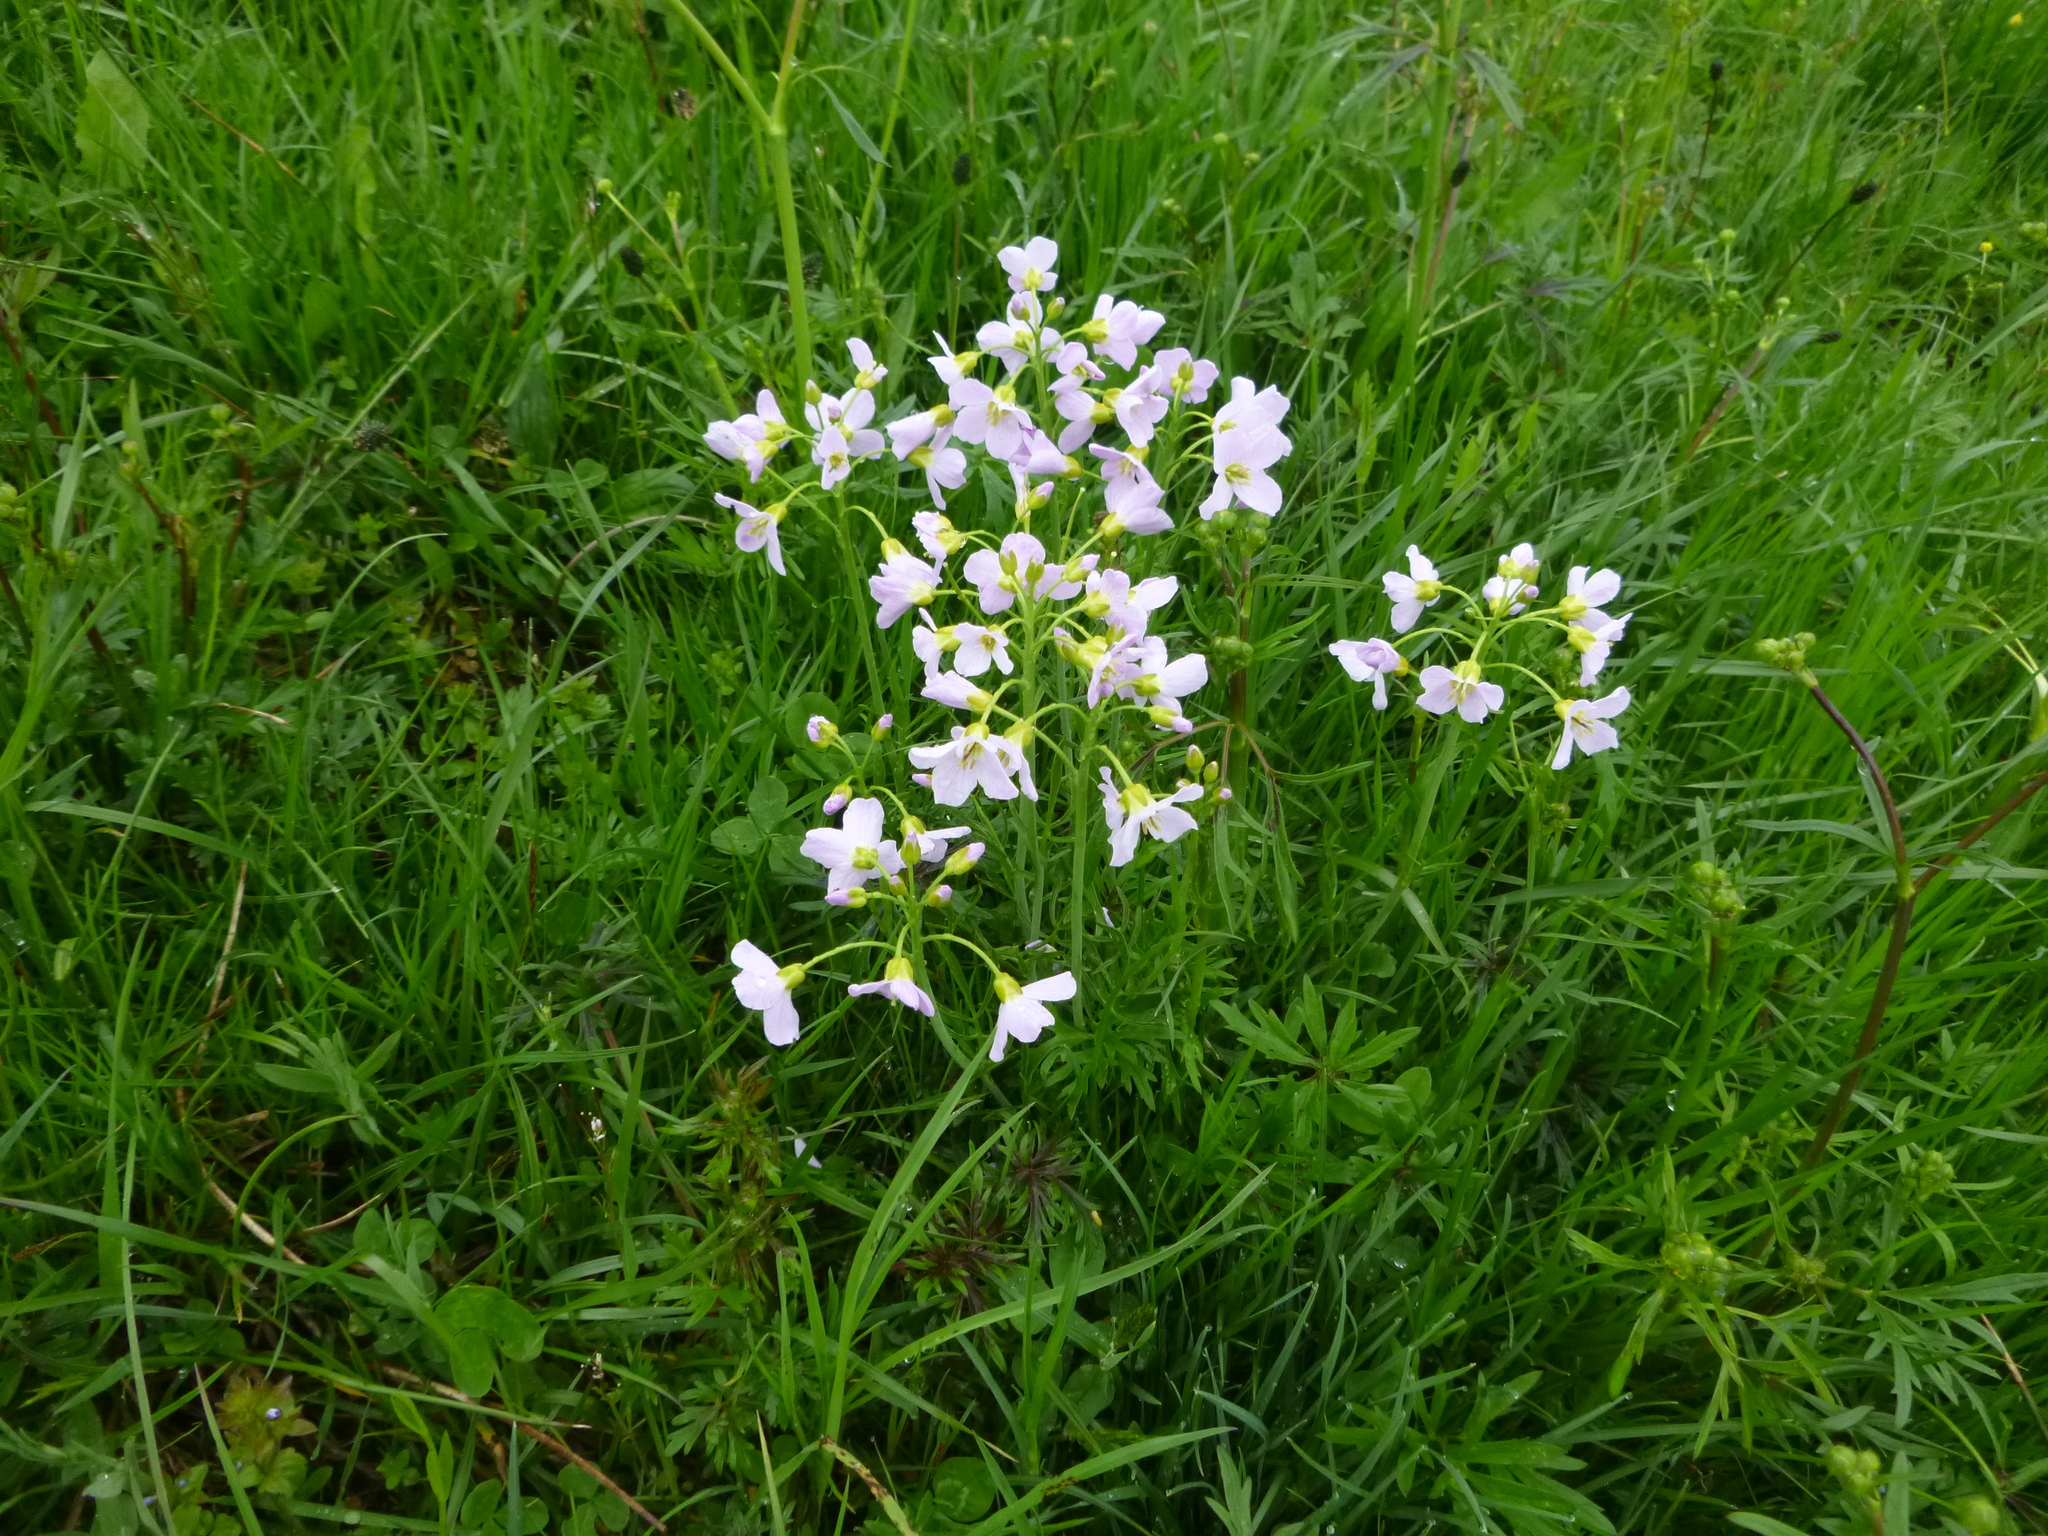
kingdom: Plantae
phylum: Tracheophyta
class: Magnoliopsida
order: Brassicales
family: Brassicaceae
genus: Cardamine
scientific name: Cardamine pratensis
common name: Cuckoo flower
